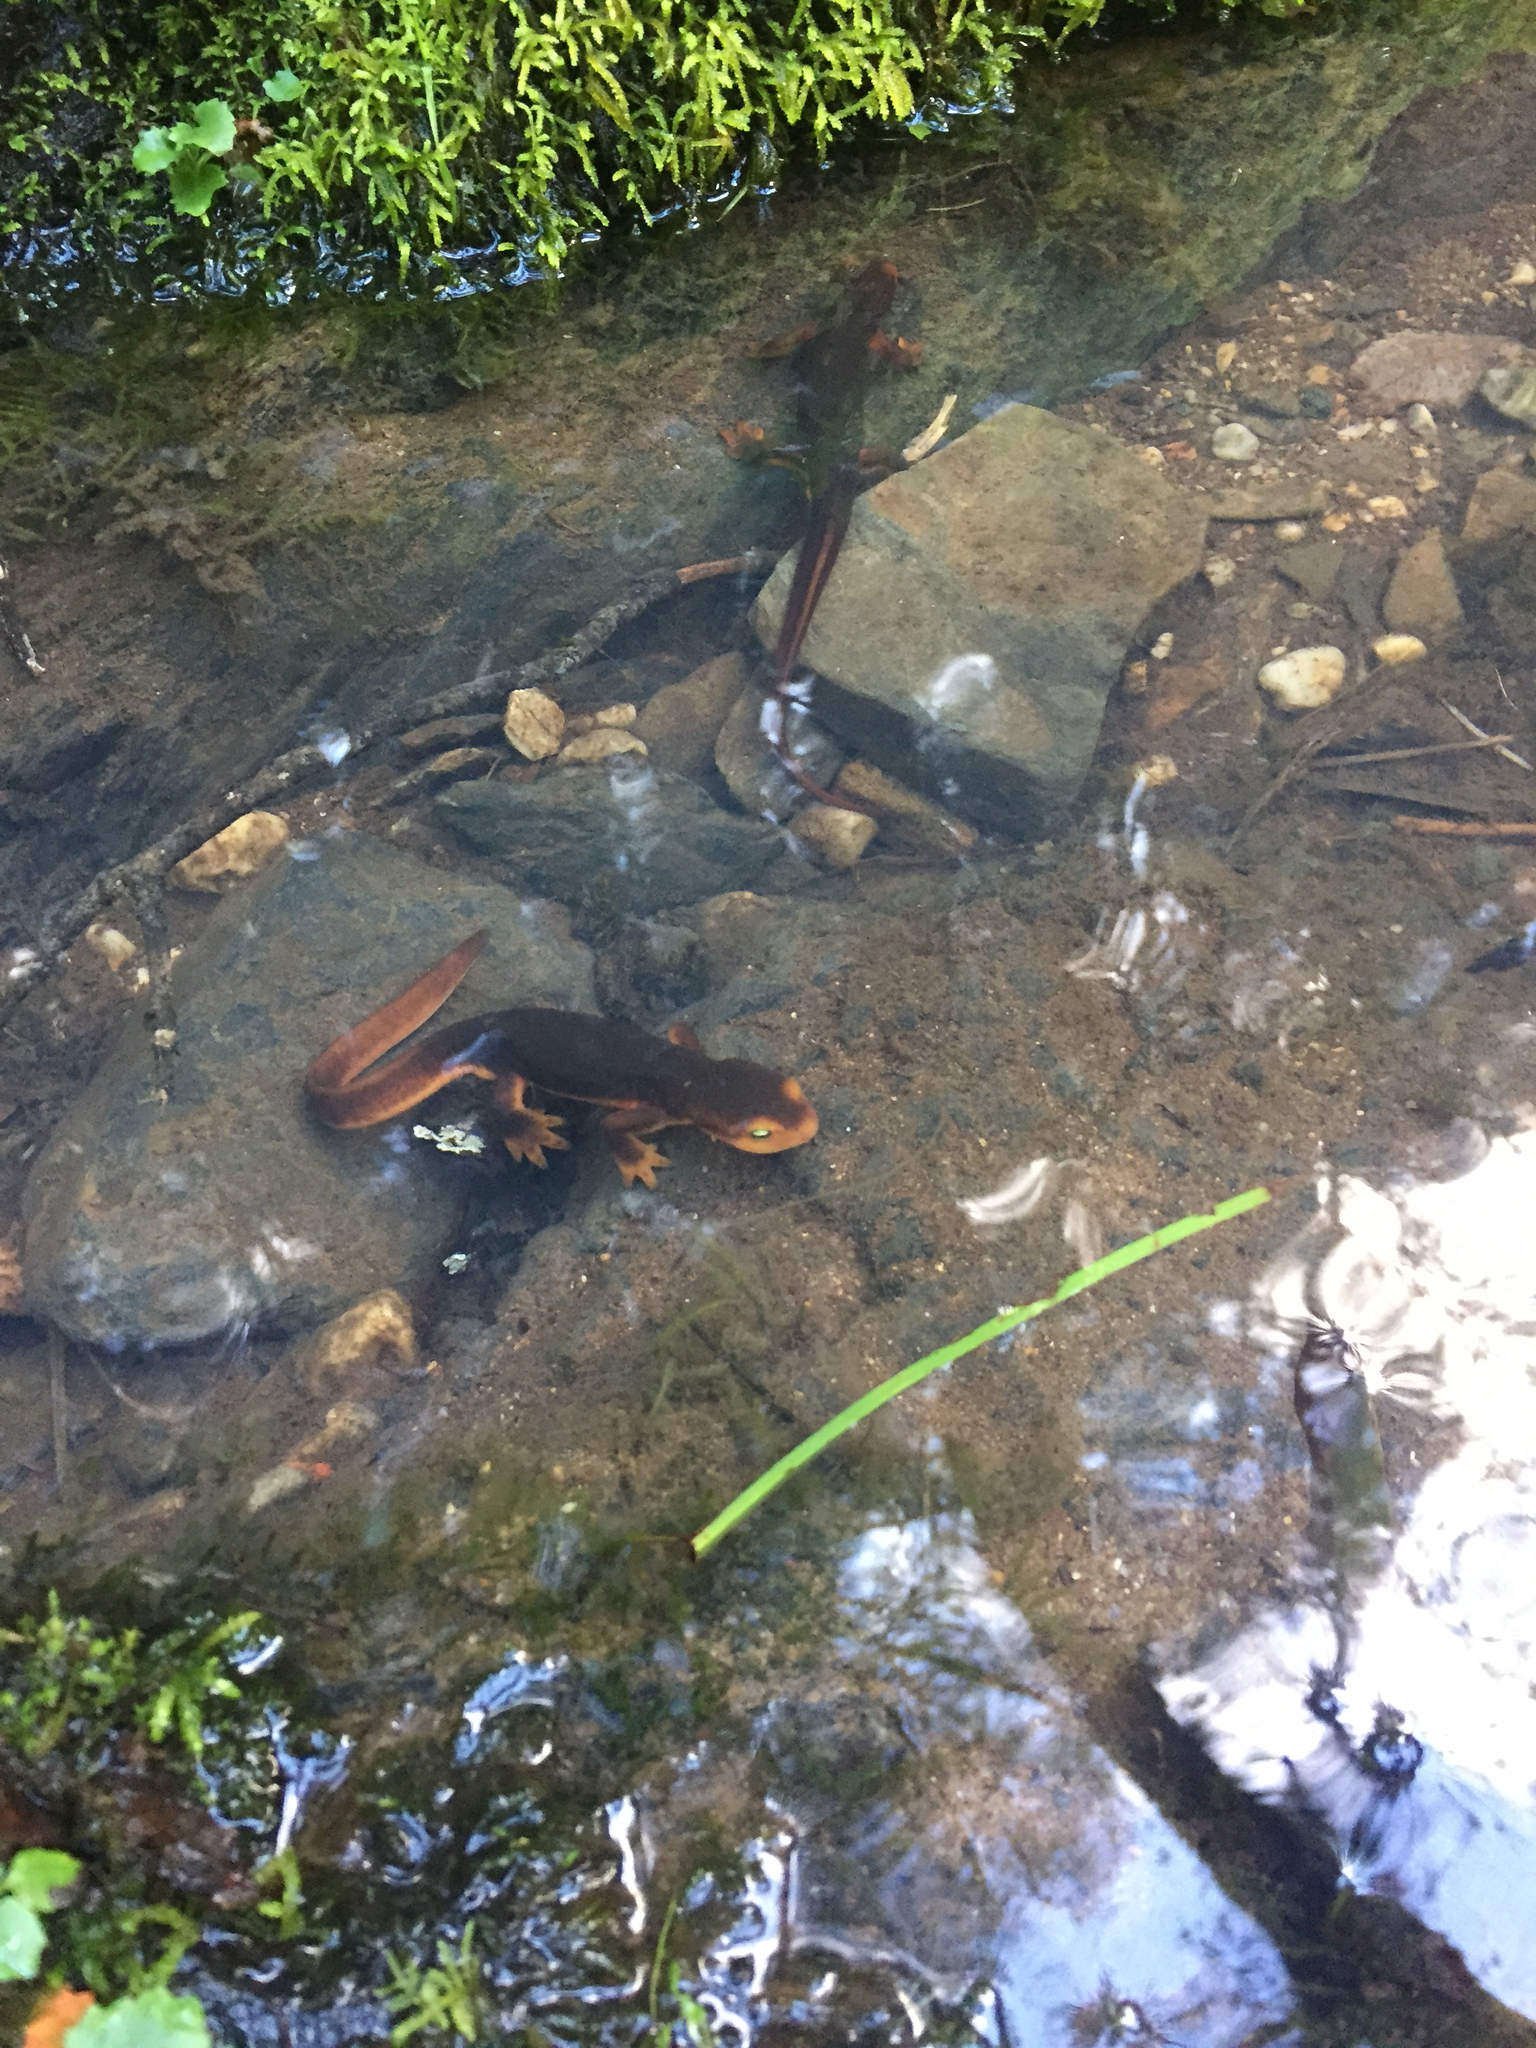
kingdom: Animalia
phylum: Chordata
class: Amphibia
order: Caudata
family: Salamandridae
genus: Taricha
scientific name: Taricha sierrae
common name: Sierra newt
